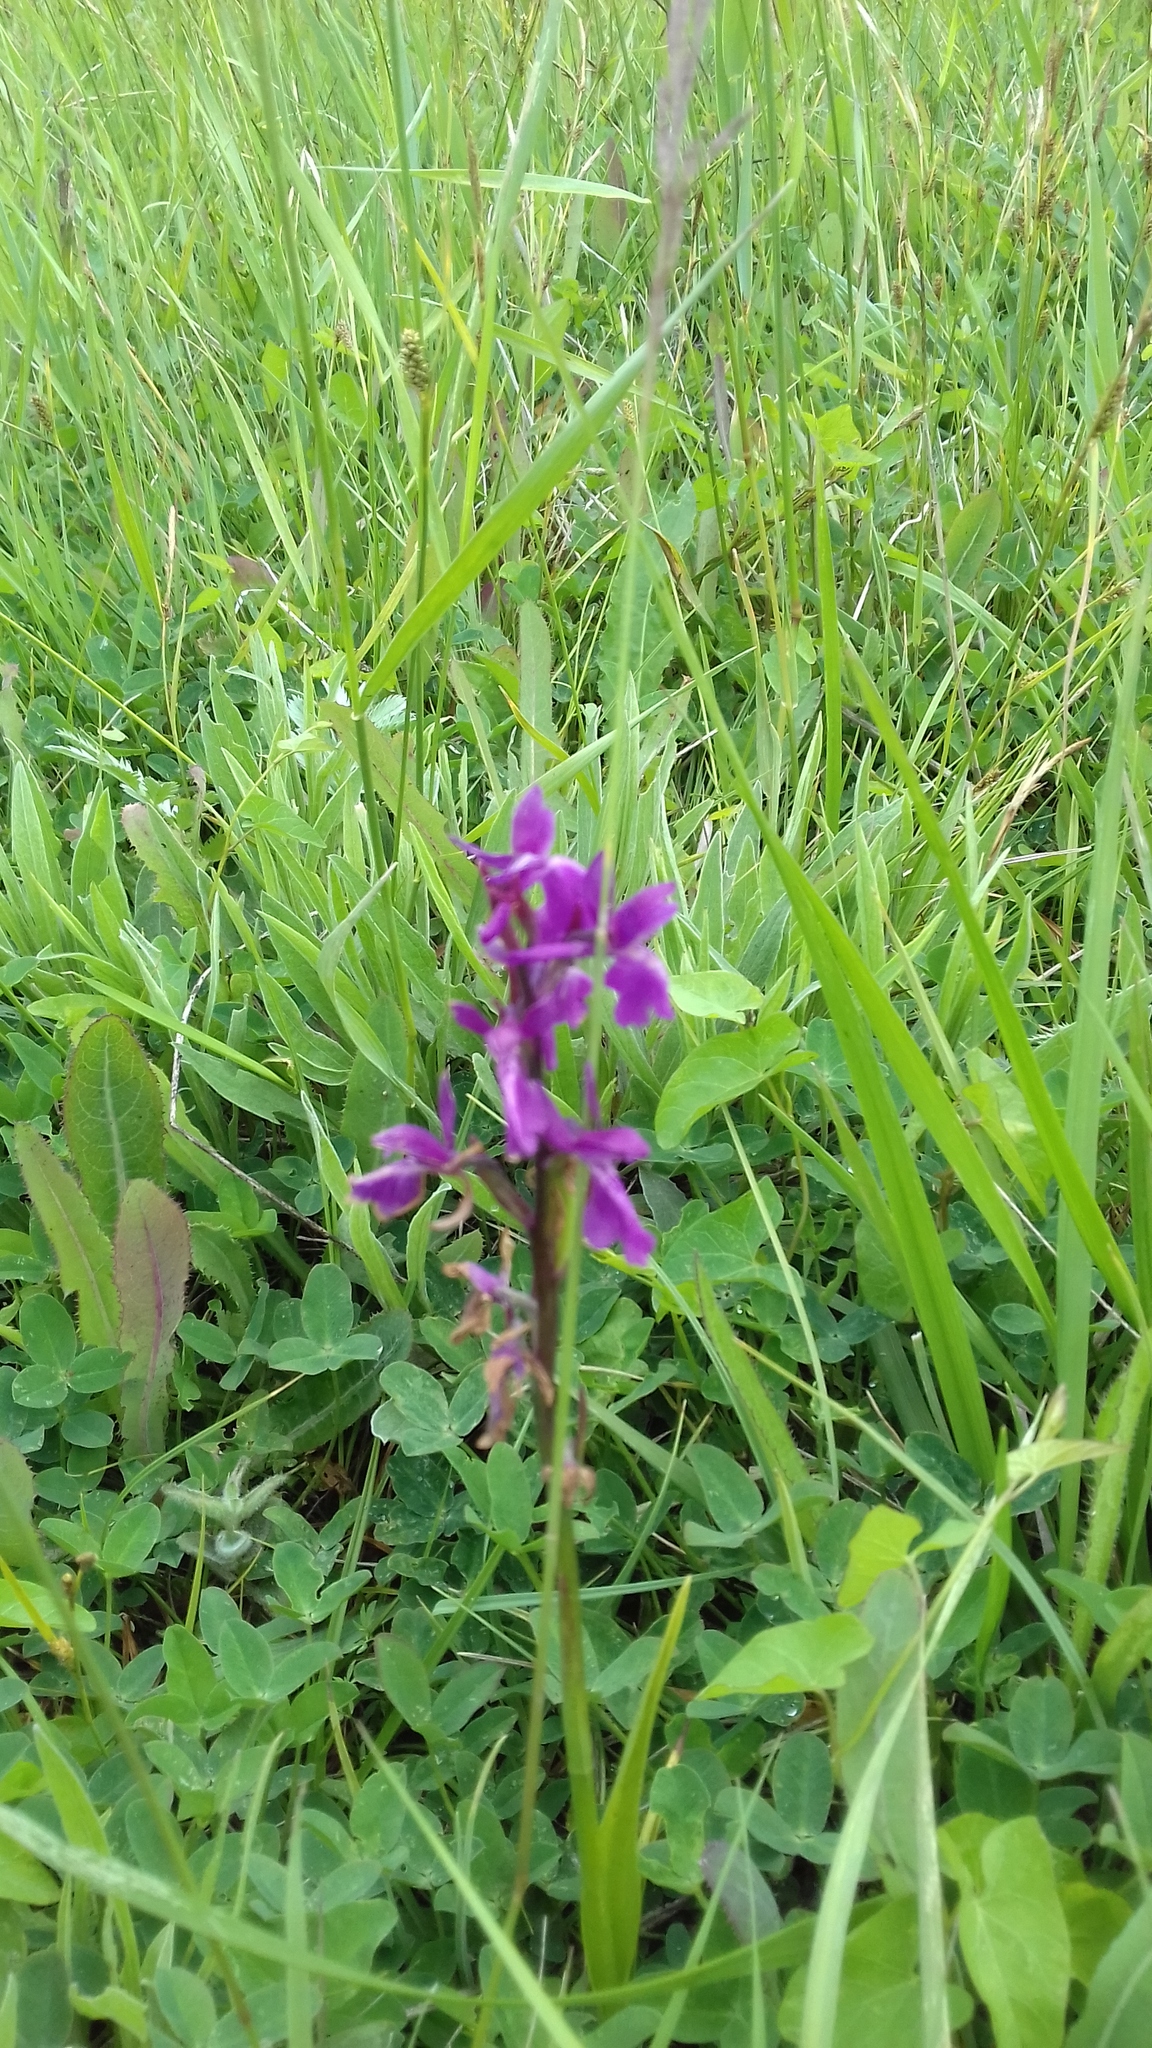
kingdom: Plantae
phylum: Tracheophyta
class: Liliopsida
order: Asparagales
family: Orchidaceae
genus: Anacamptis
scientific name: Anacamptis palustris
